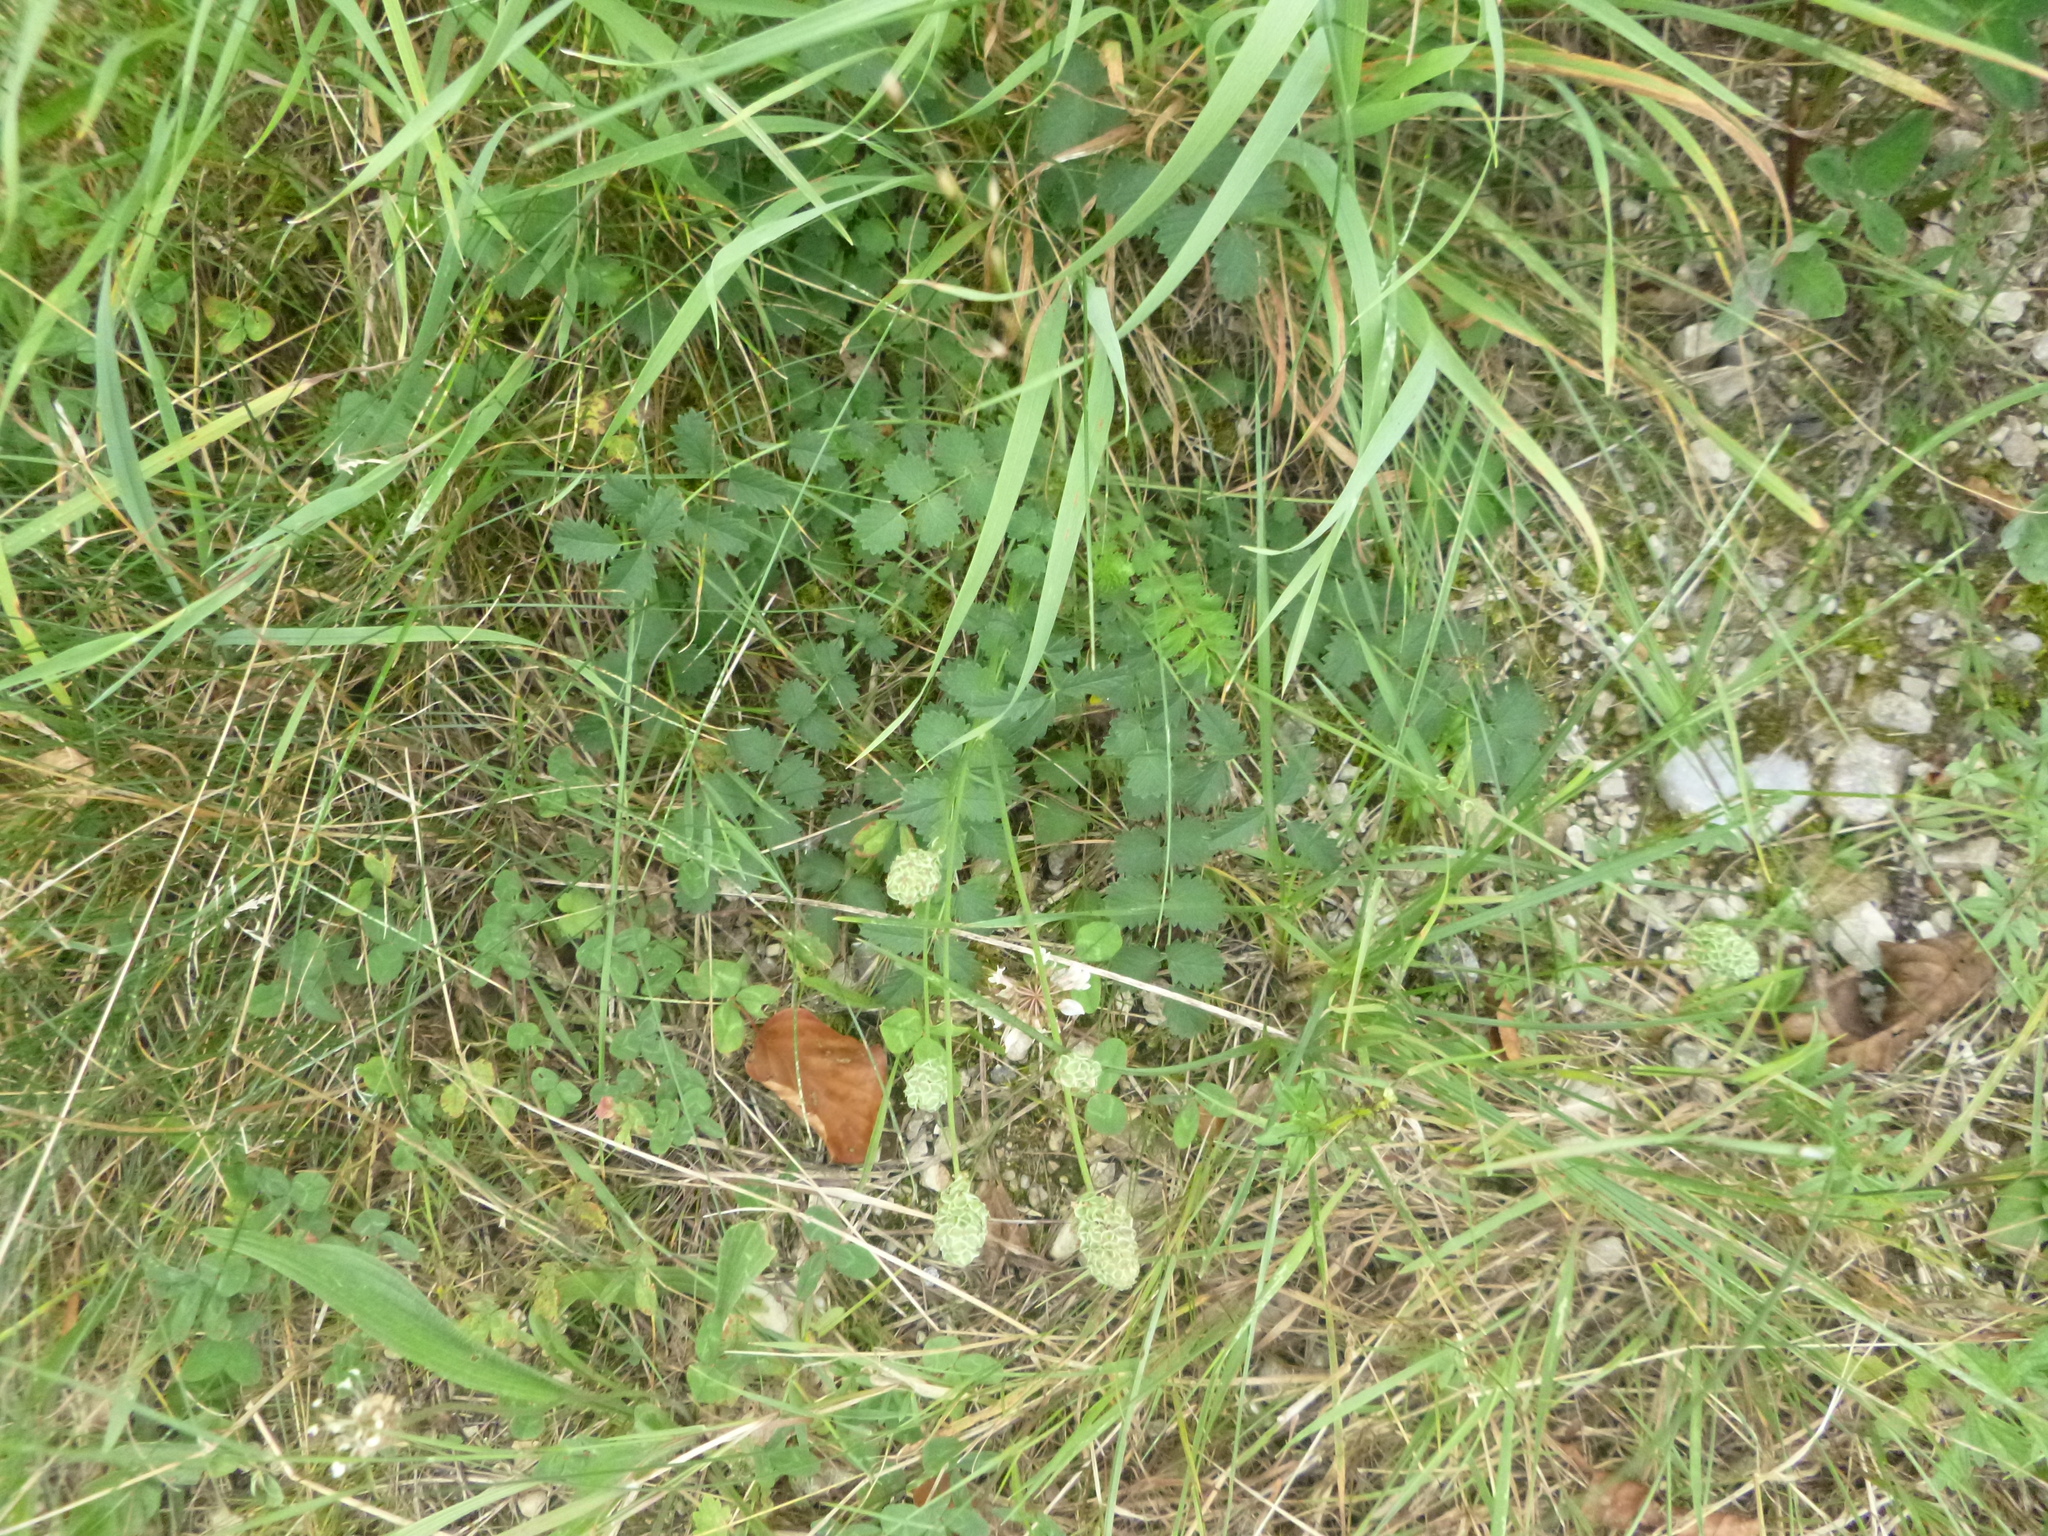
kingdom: Plantae
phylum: Tracheophyta
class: Magnoliopsida
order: Rosales
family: Rosaceae
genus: Poterium
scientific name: Poterium sanguisorba
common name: Salad burnet
